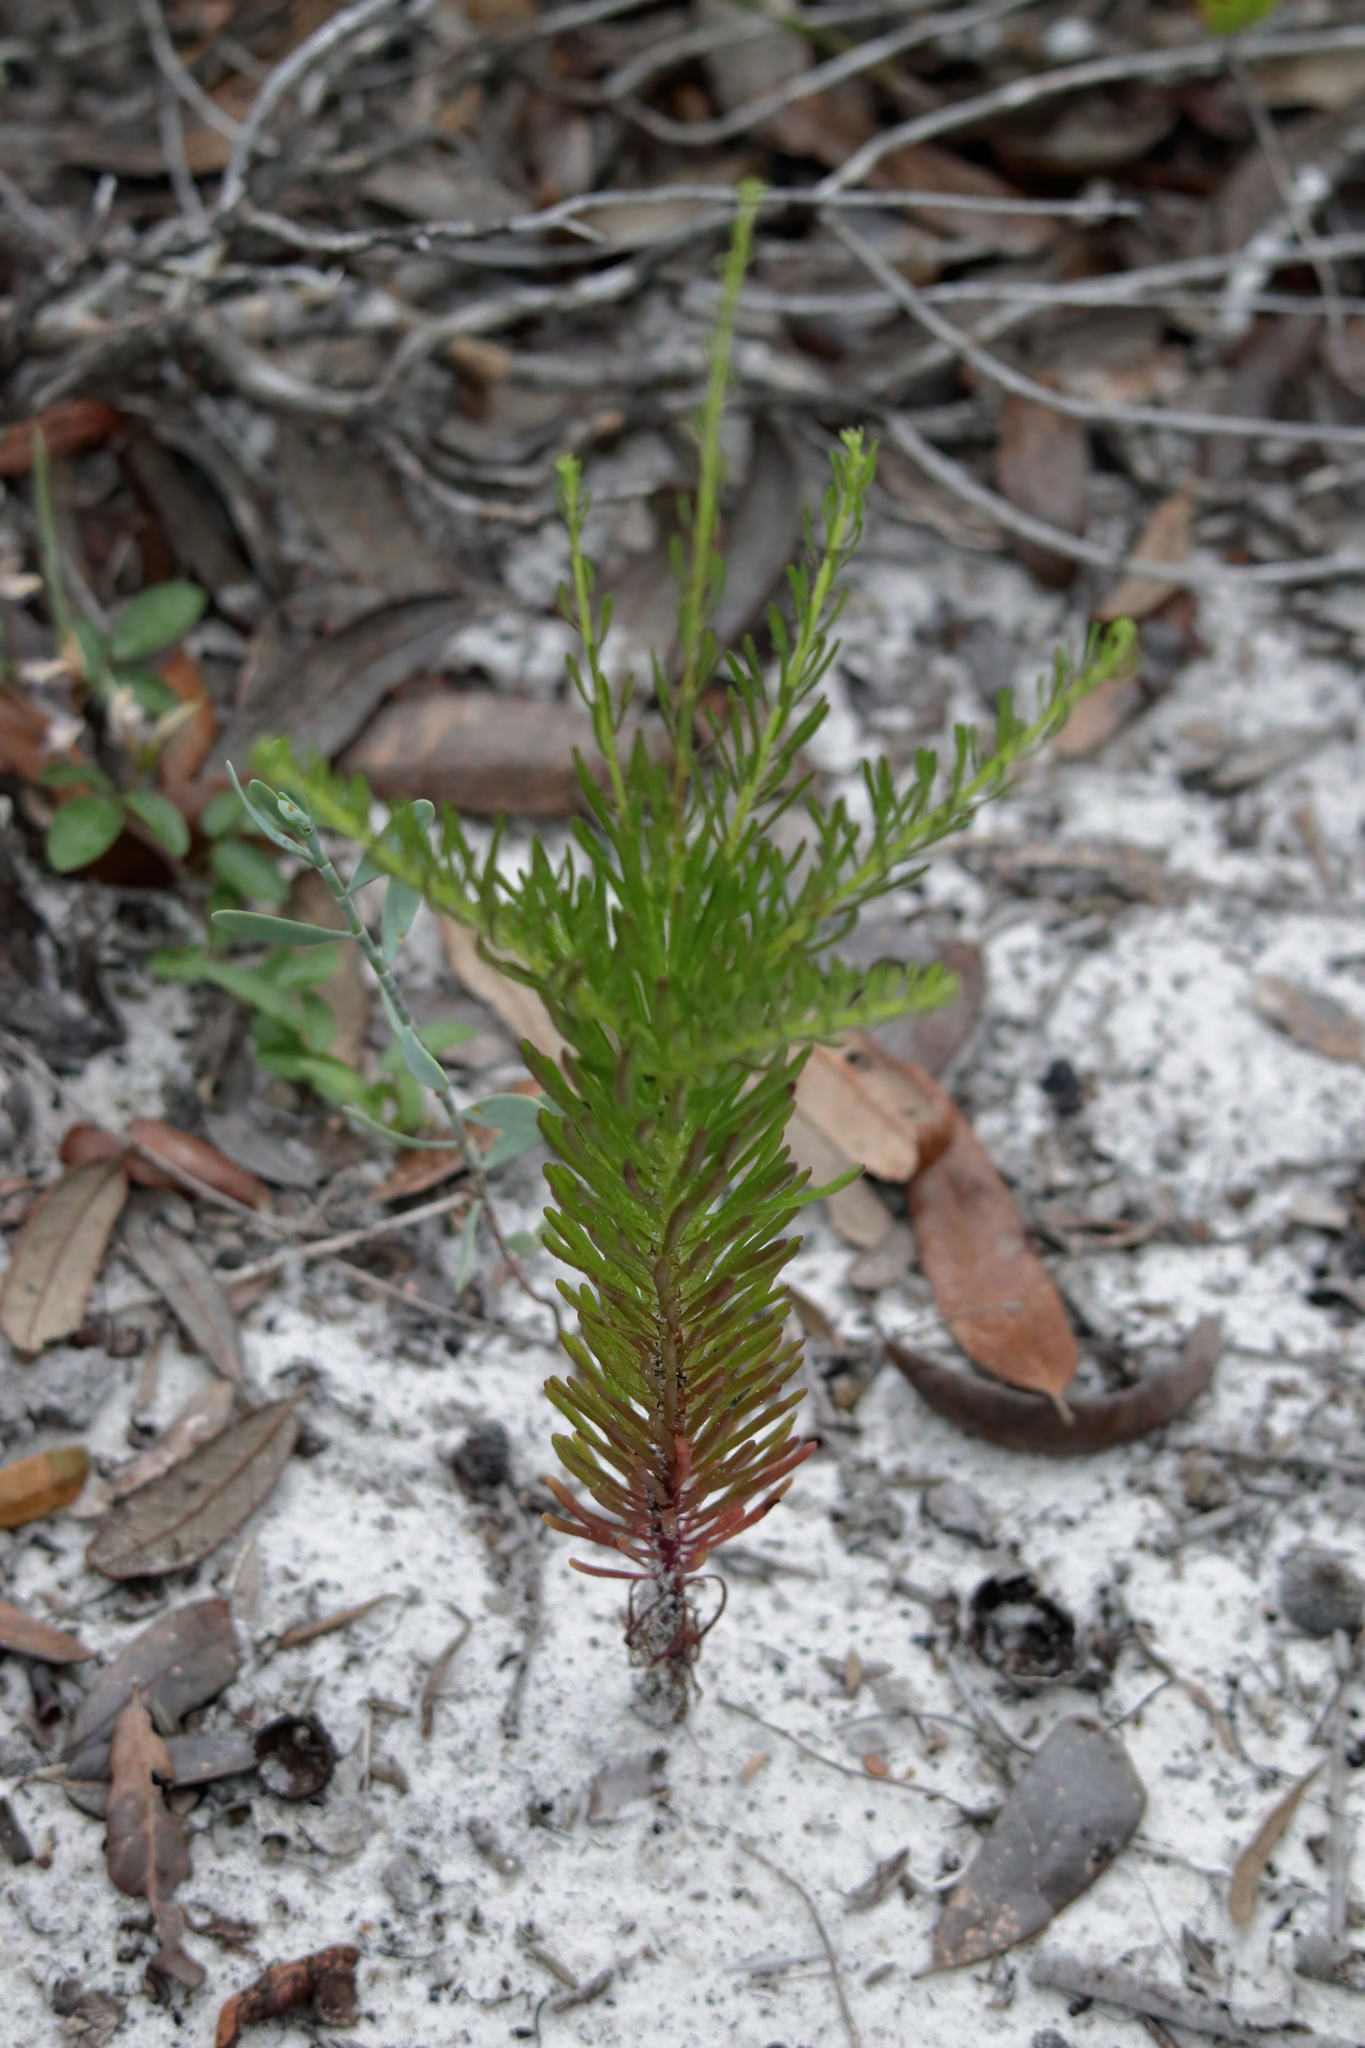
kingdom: Plantae
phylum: Tracheophyta
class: Magnoliopsida
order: Asterales
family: Asteraceae
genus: Balduina
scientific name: Balduina angustifolia
